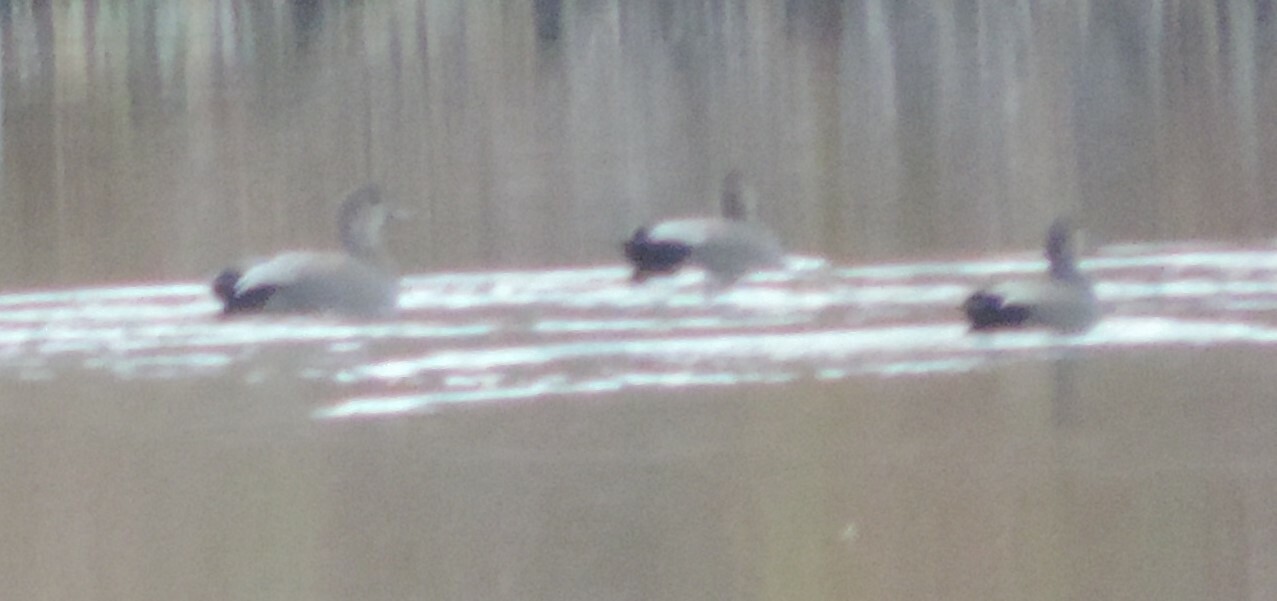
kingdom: Animalia
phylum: Chordata
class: Aves
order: Anseriformes
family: Anatidae
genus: Mareca
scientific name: Mareca strepera
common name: Gadwall
